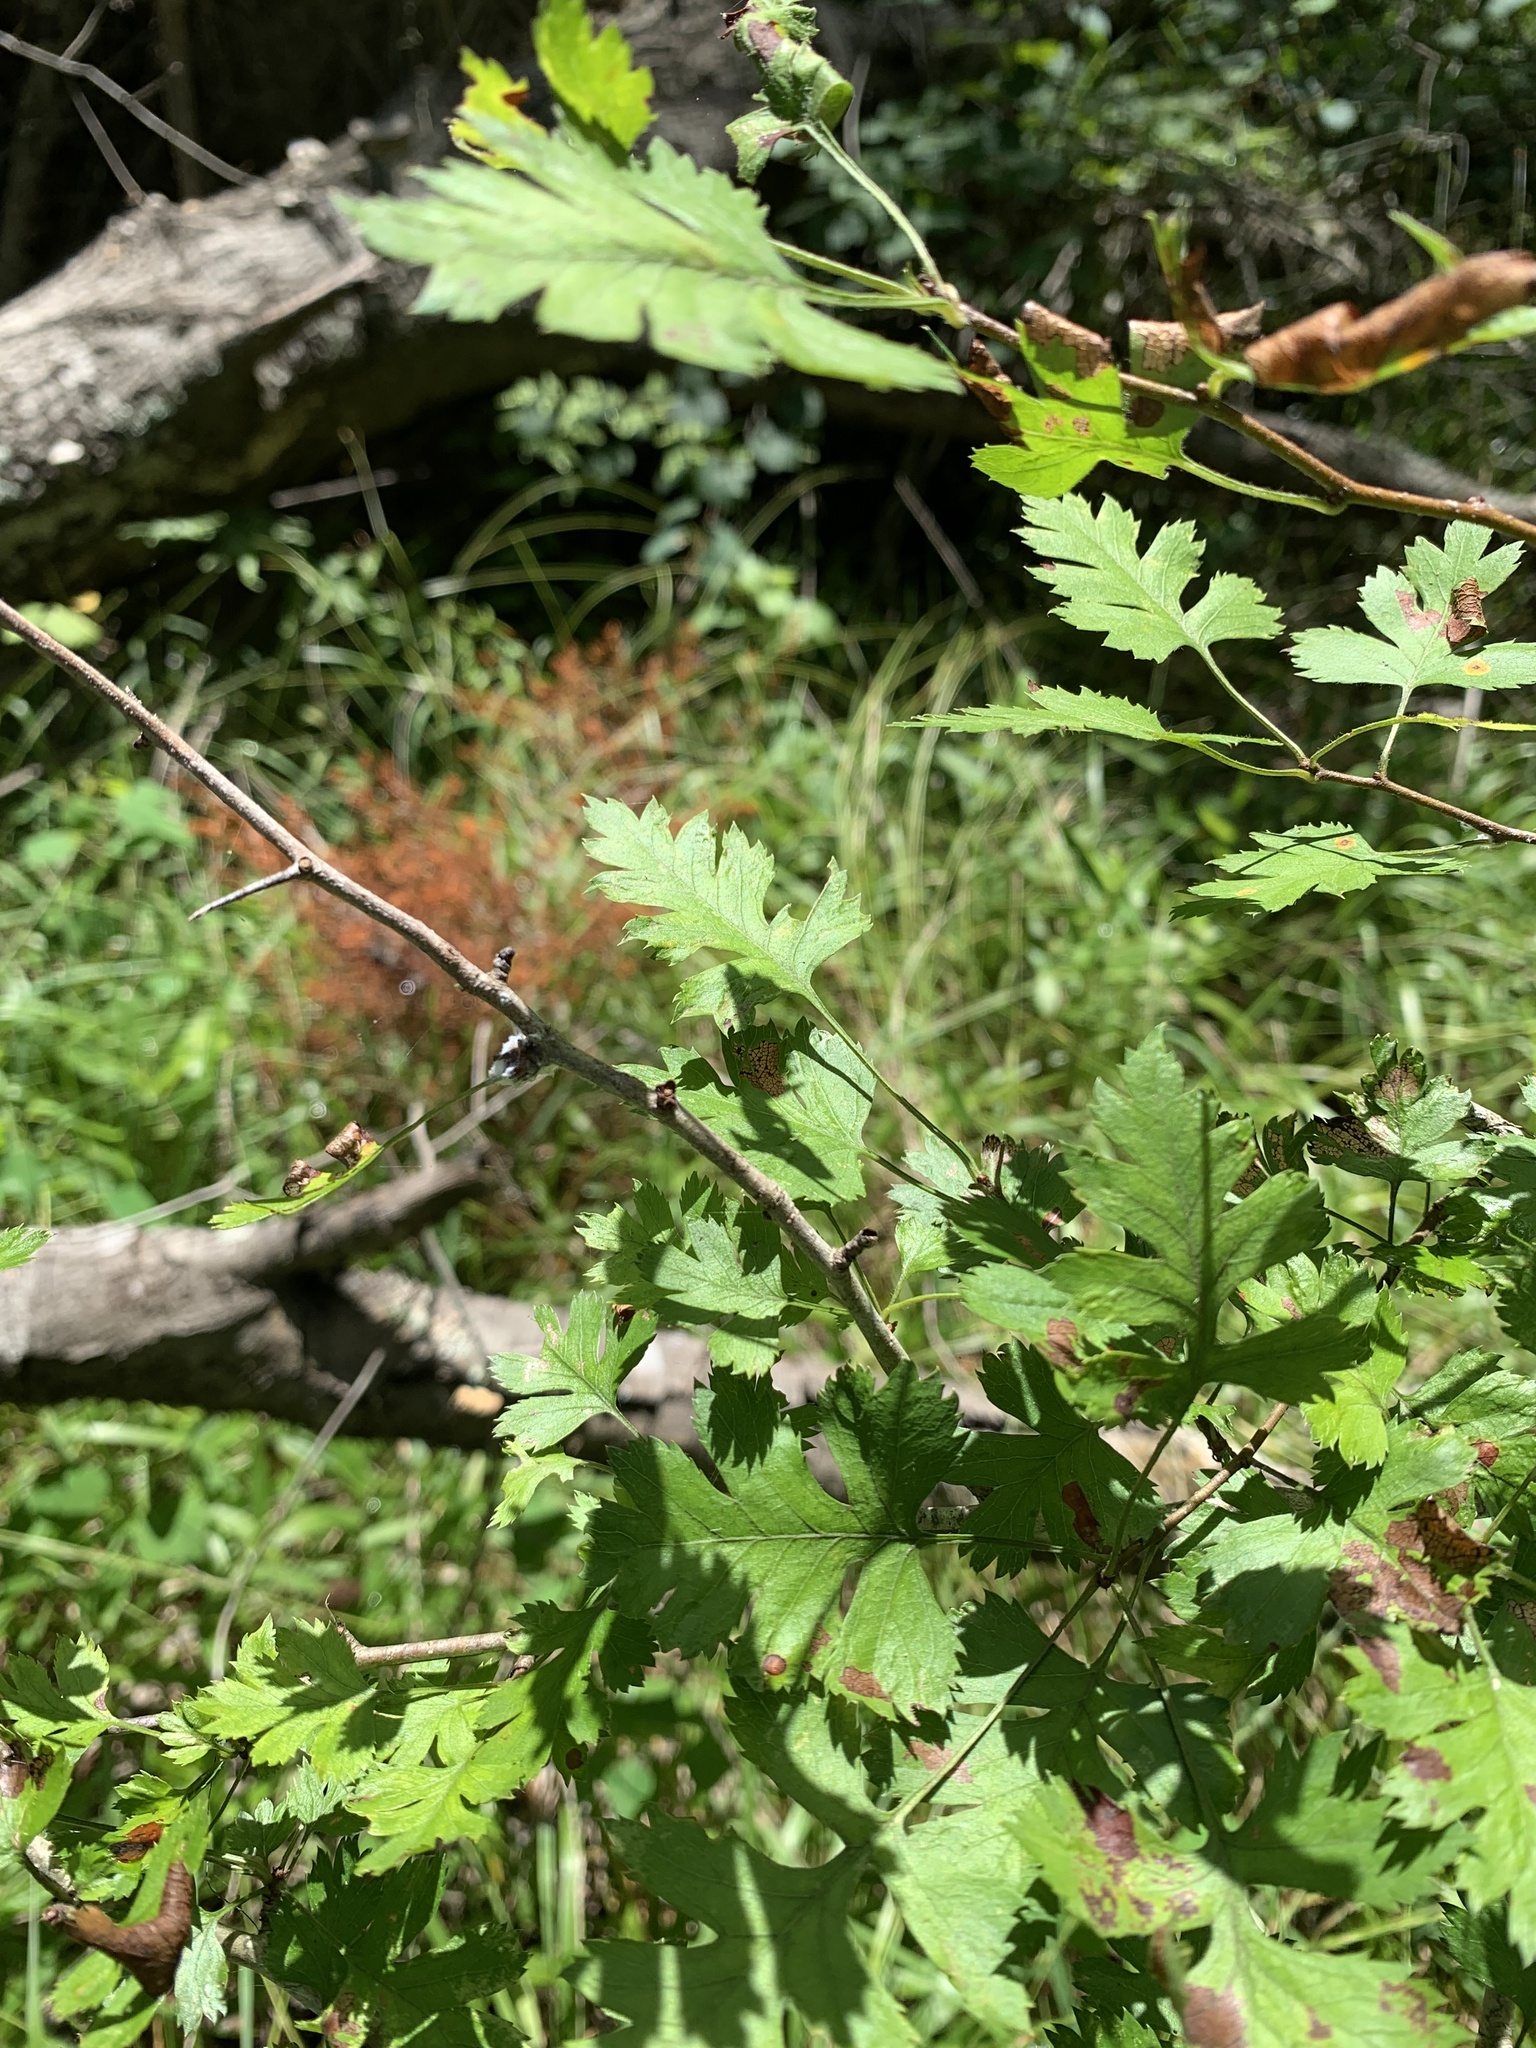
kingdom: Plantae
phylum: Tracheophyta
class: Magnoliopsida
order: Rosales
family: Rosaceae
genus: Crataegus
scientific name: Crataegus marshallii
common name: Parsley-hawthorn
